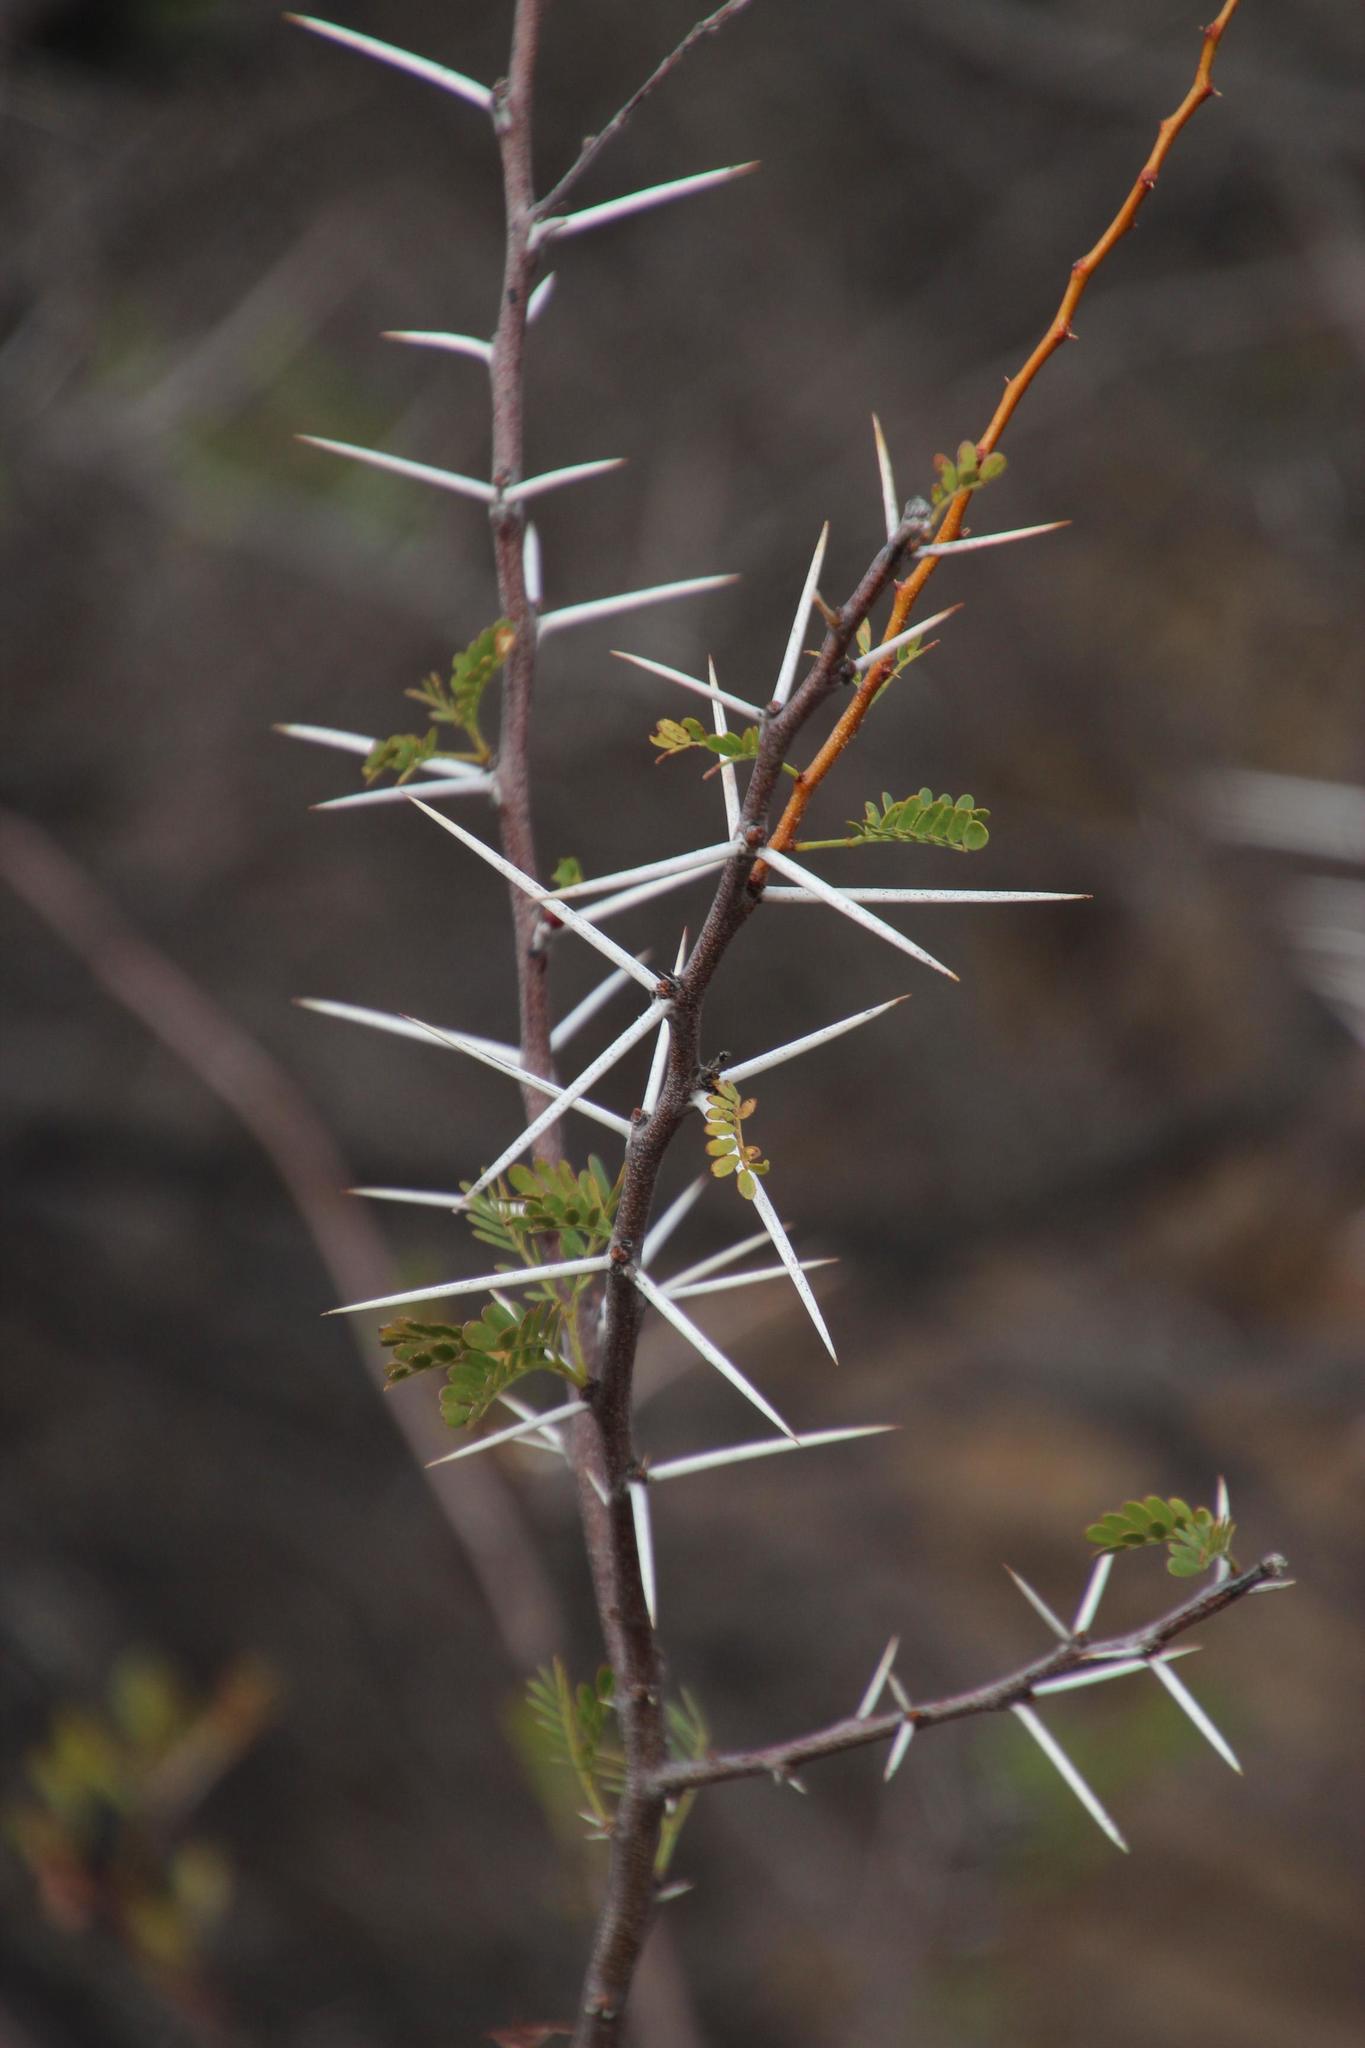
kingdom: Plantae
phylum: Tracheophyta
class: Magnoliopsida
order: Fabales
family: Fabaceae
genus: Vachellia
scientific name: Vachellia karroo
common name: Sweet thorn
